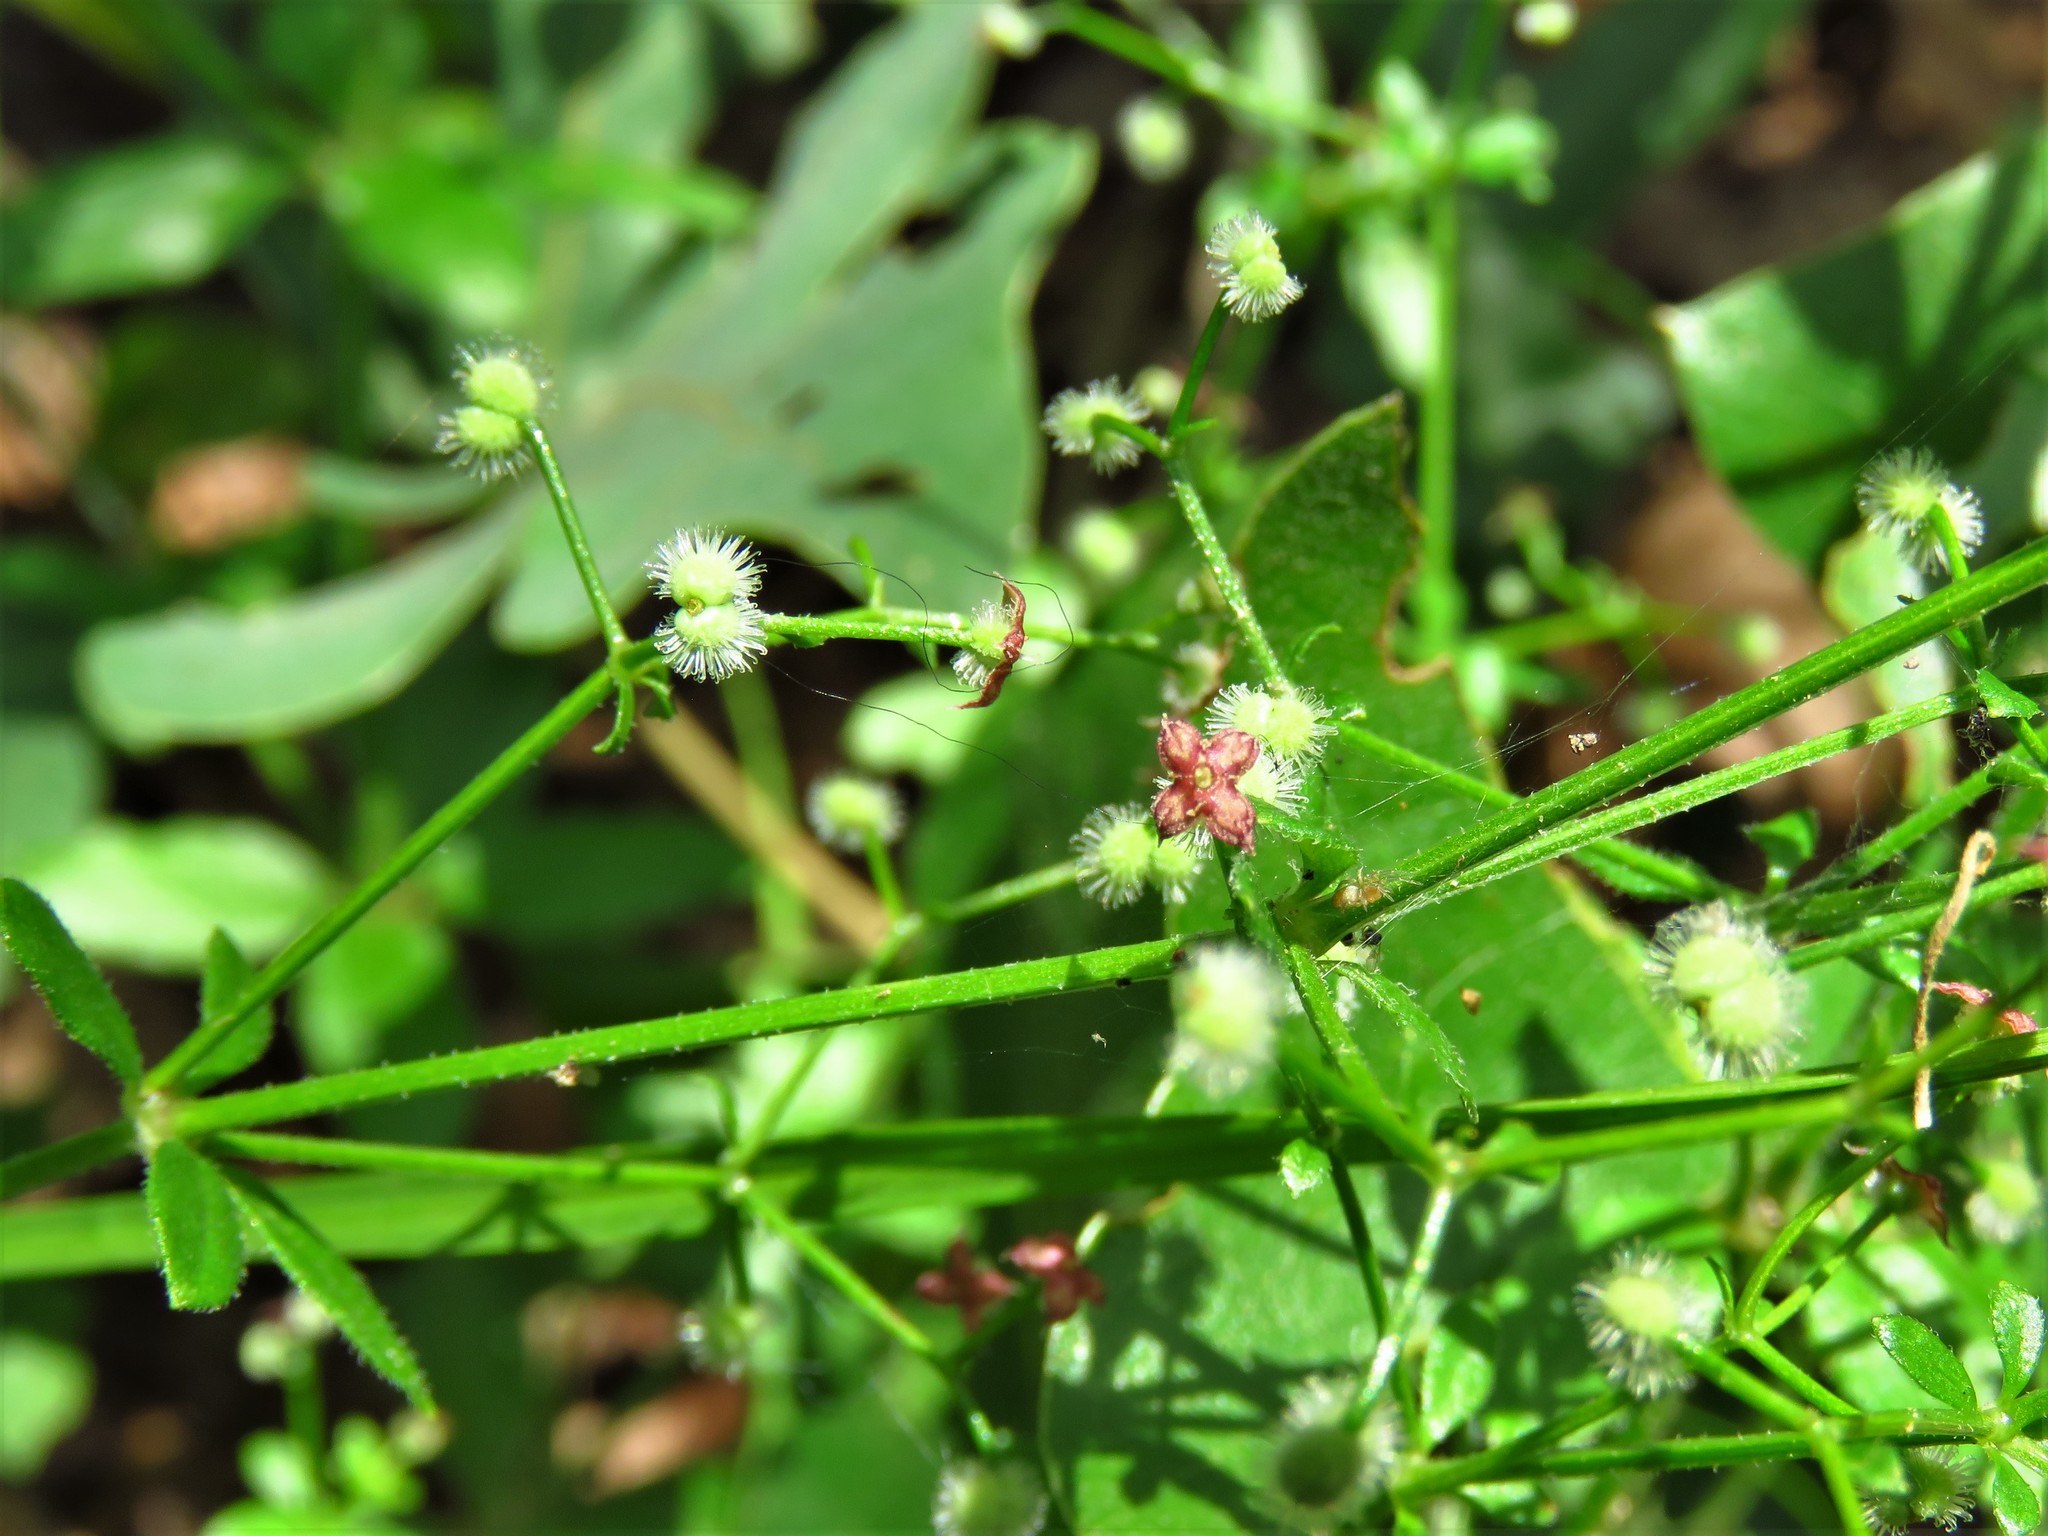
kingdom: Plantae
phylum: Tracheophyta
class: Magnoliopsida
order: Gentianales
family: Rubiaceae
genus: Galium
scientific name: Galium pilosum
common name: Hairy bedstraw
